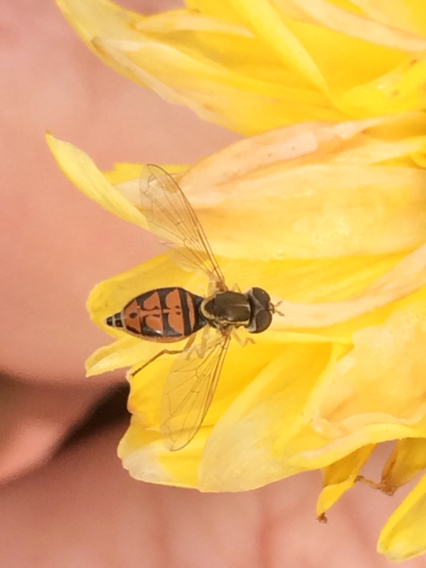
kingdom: Animalia
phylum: Arthropoda
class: Insecta
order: Diptera
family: Syrphidae
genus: Toxomerus
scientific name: Toxomerus marginatus
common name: Syrphid fly
